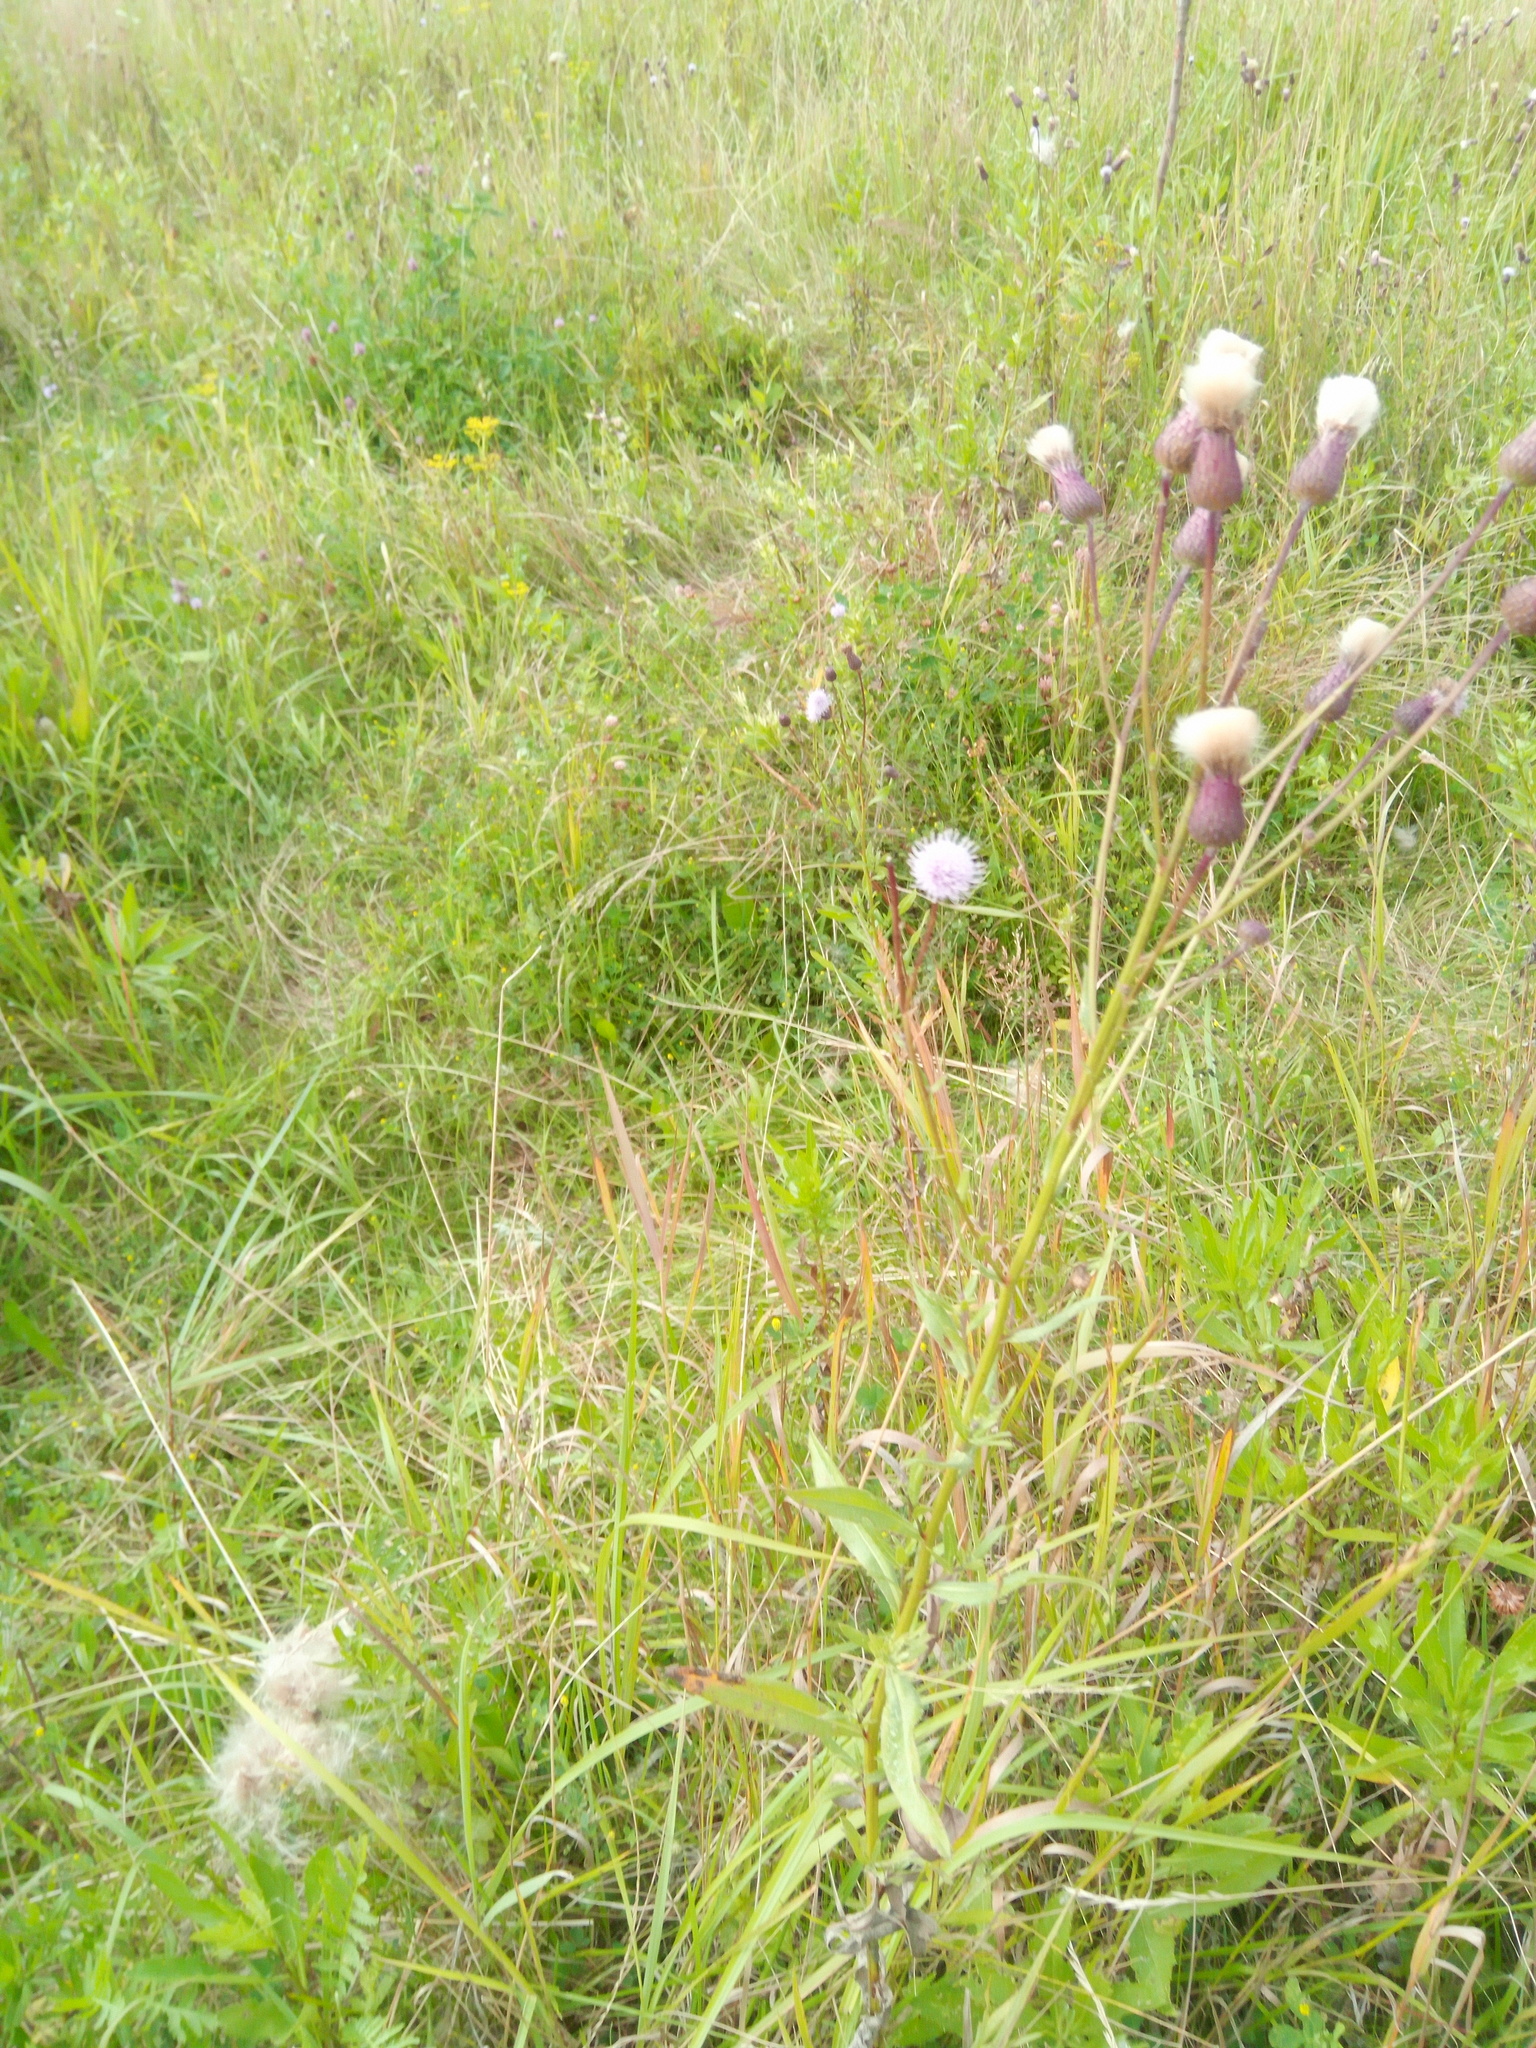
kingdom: Plantae
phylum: Tracheophyta
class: Magnoliopsida
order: Asterales
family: Asteraceae
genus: Cirsium
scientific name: Cirsium arvense
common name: Creeping thistle
